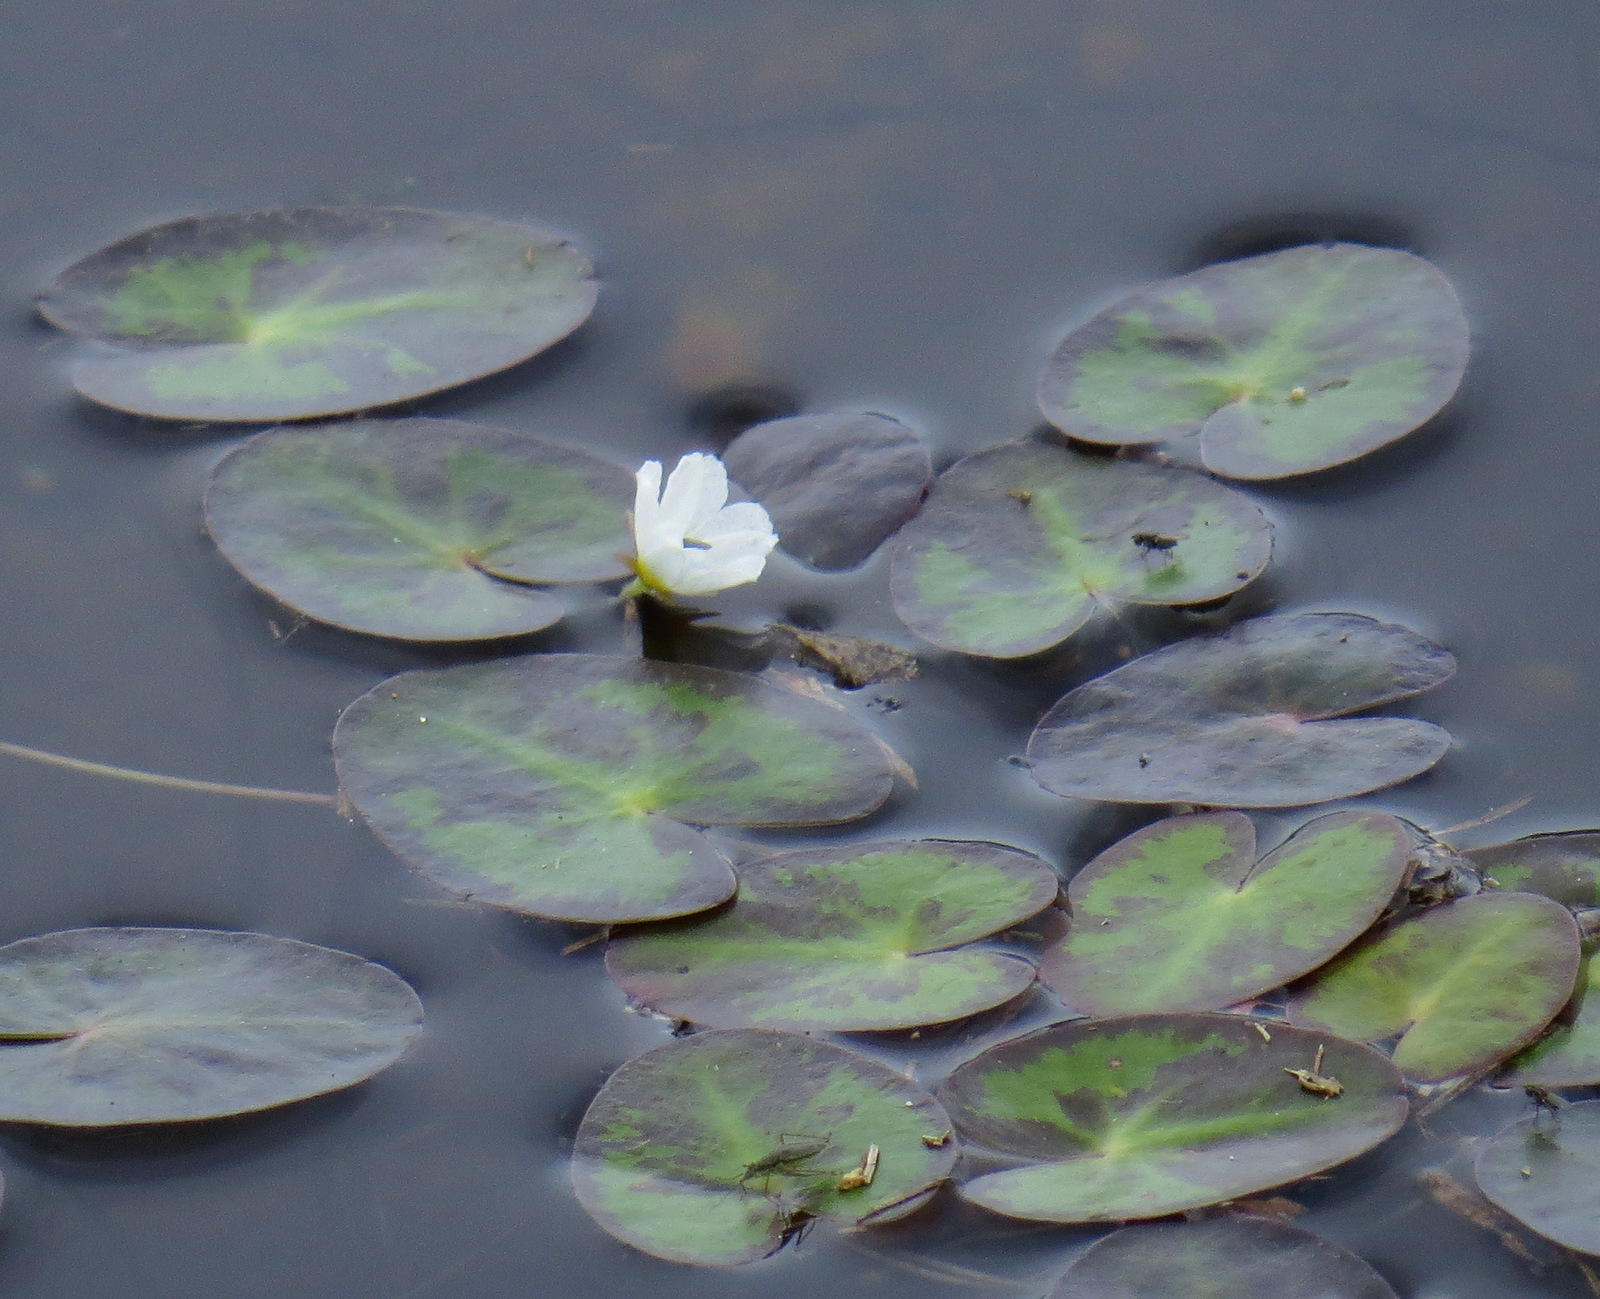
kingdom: Plantae
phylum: Tracheophyta
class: Magnoliopsida
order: Asterales
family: Menyanthaceae
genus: Nymphoides
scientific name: Nymphoides cordata
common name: Eight-angled floatingheart
